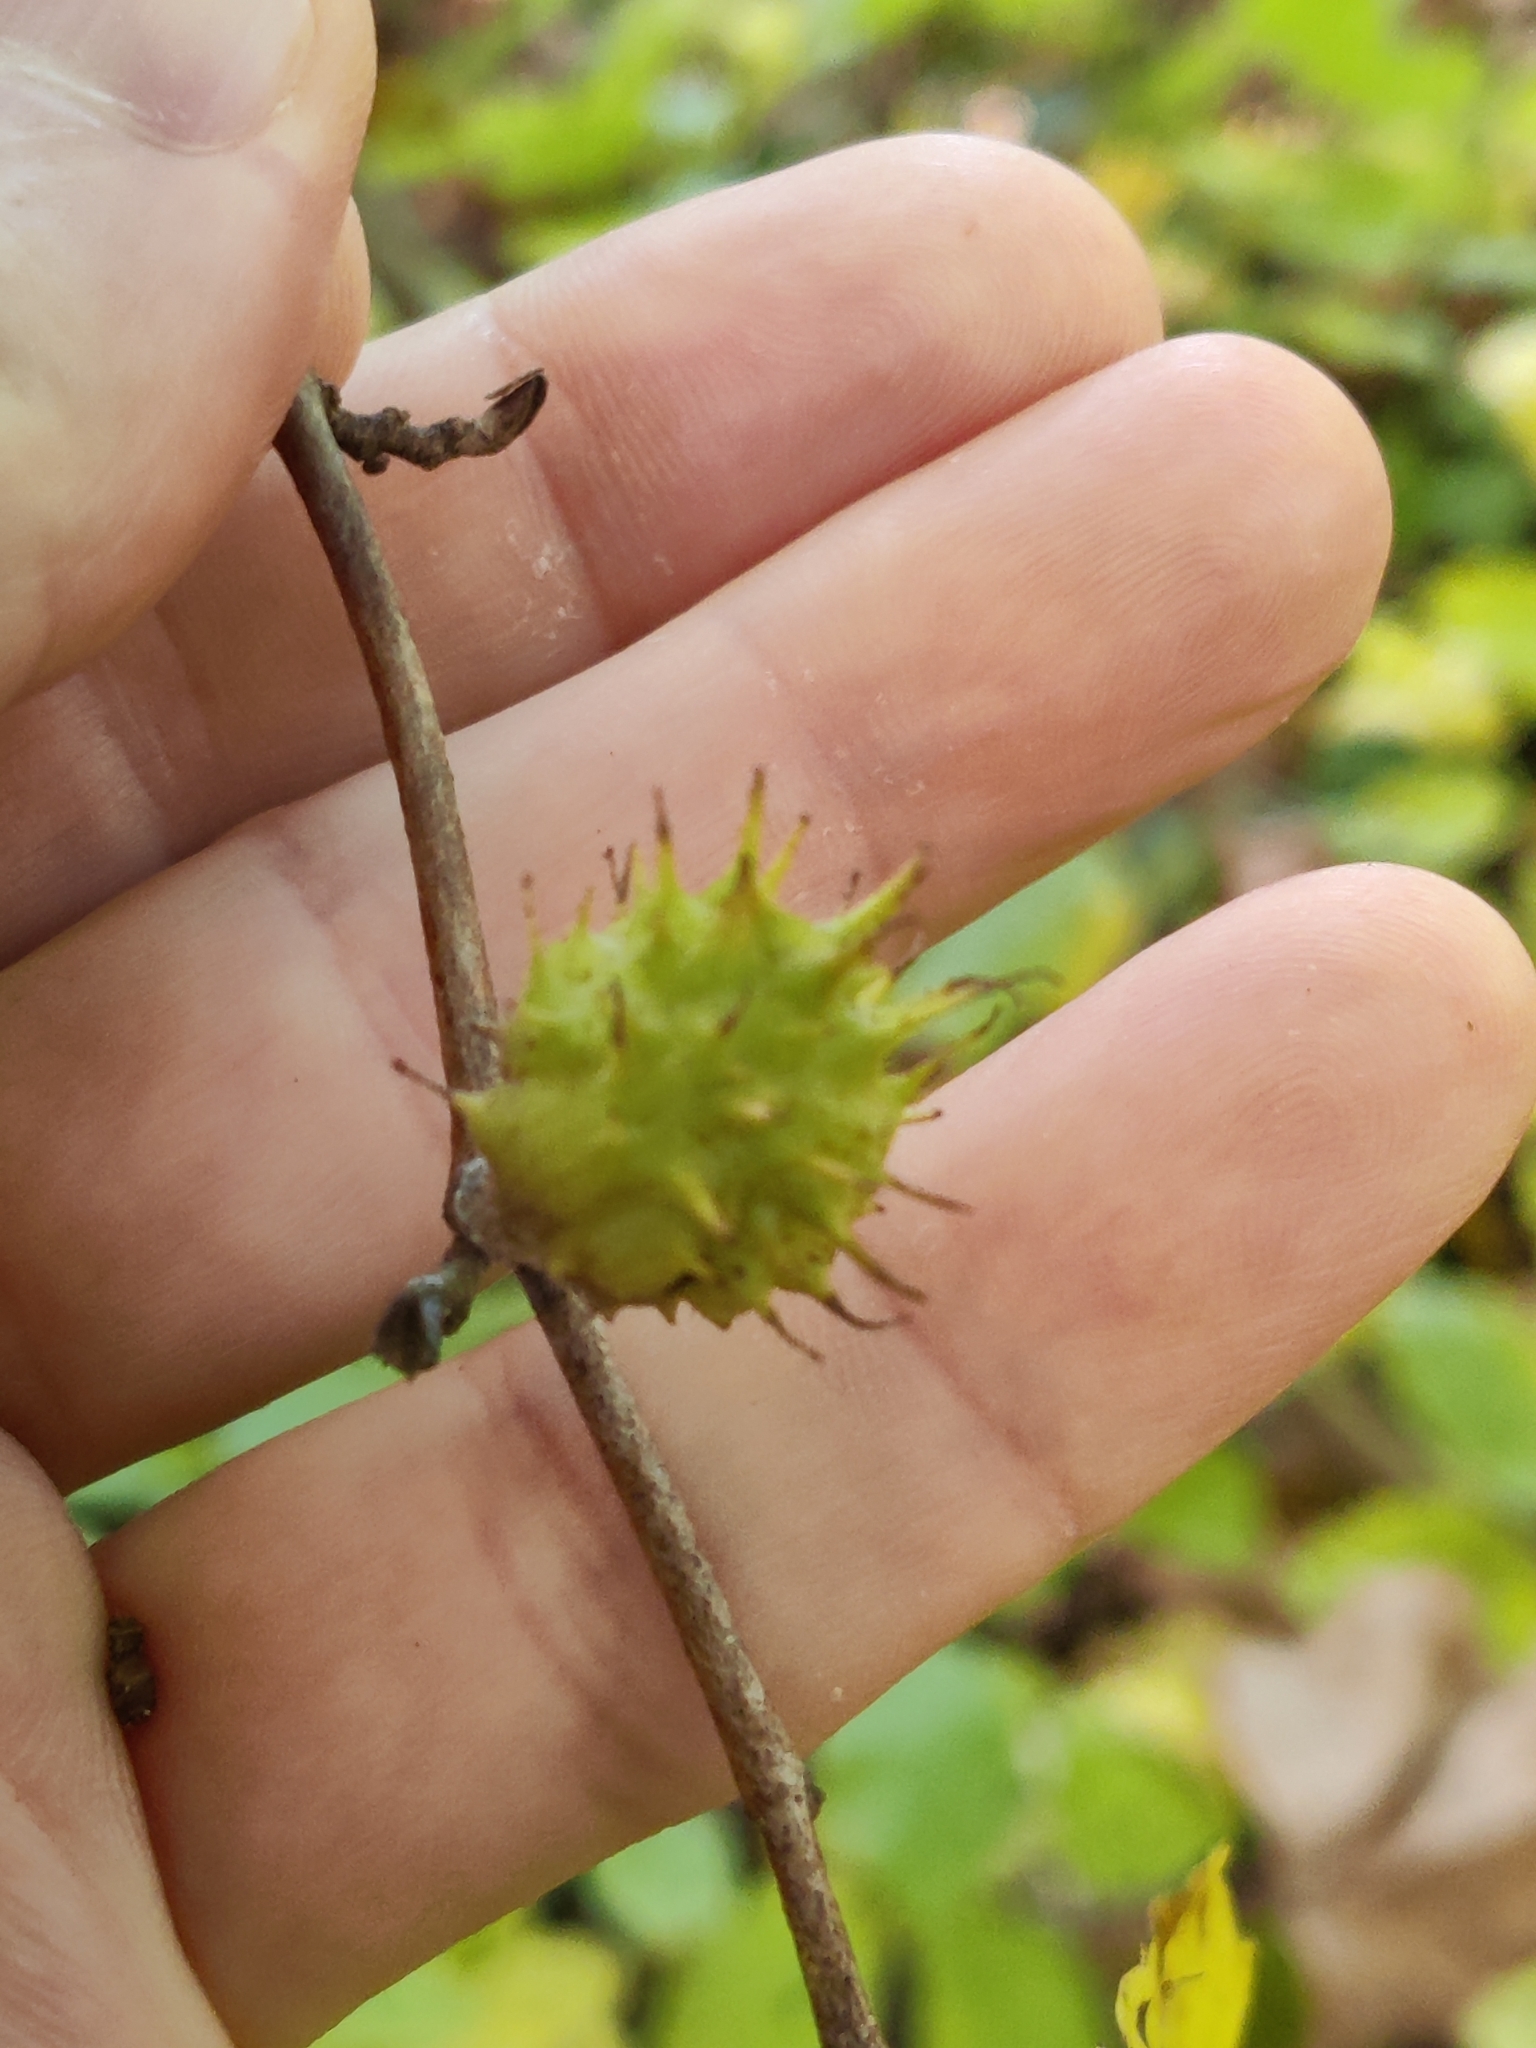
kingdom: Animalia
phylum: Arthropoda
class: Insecta
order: Hemiptera
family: Aphididae
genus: Hamamelistes
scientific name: Hamamelistes spinosus
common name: Witch hazel gall aphid
